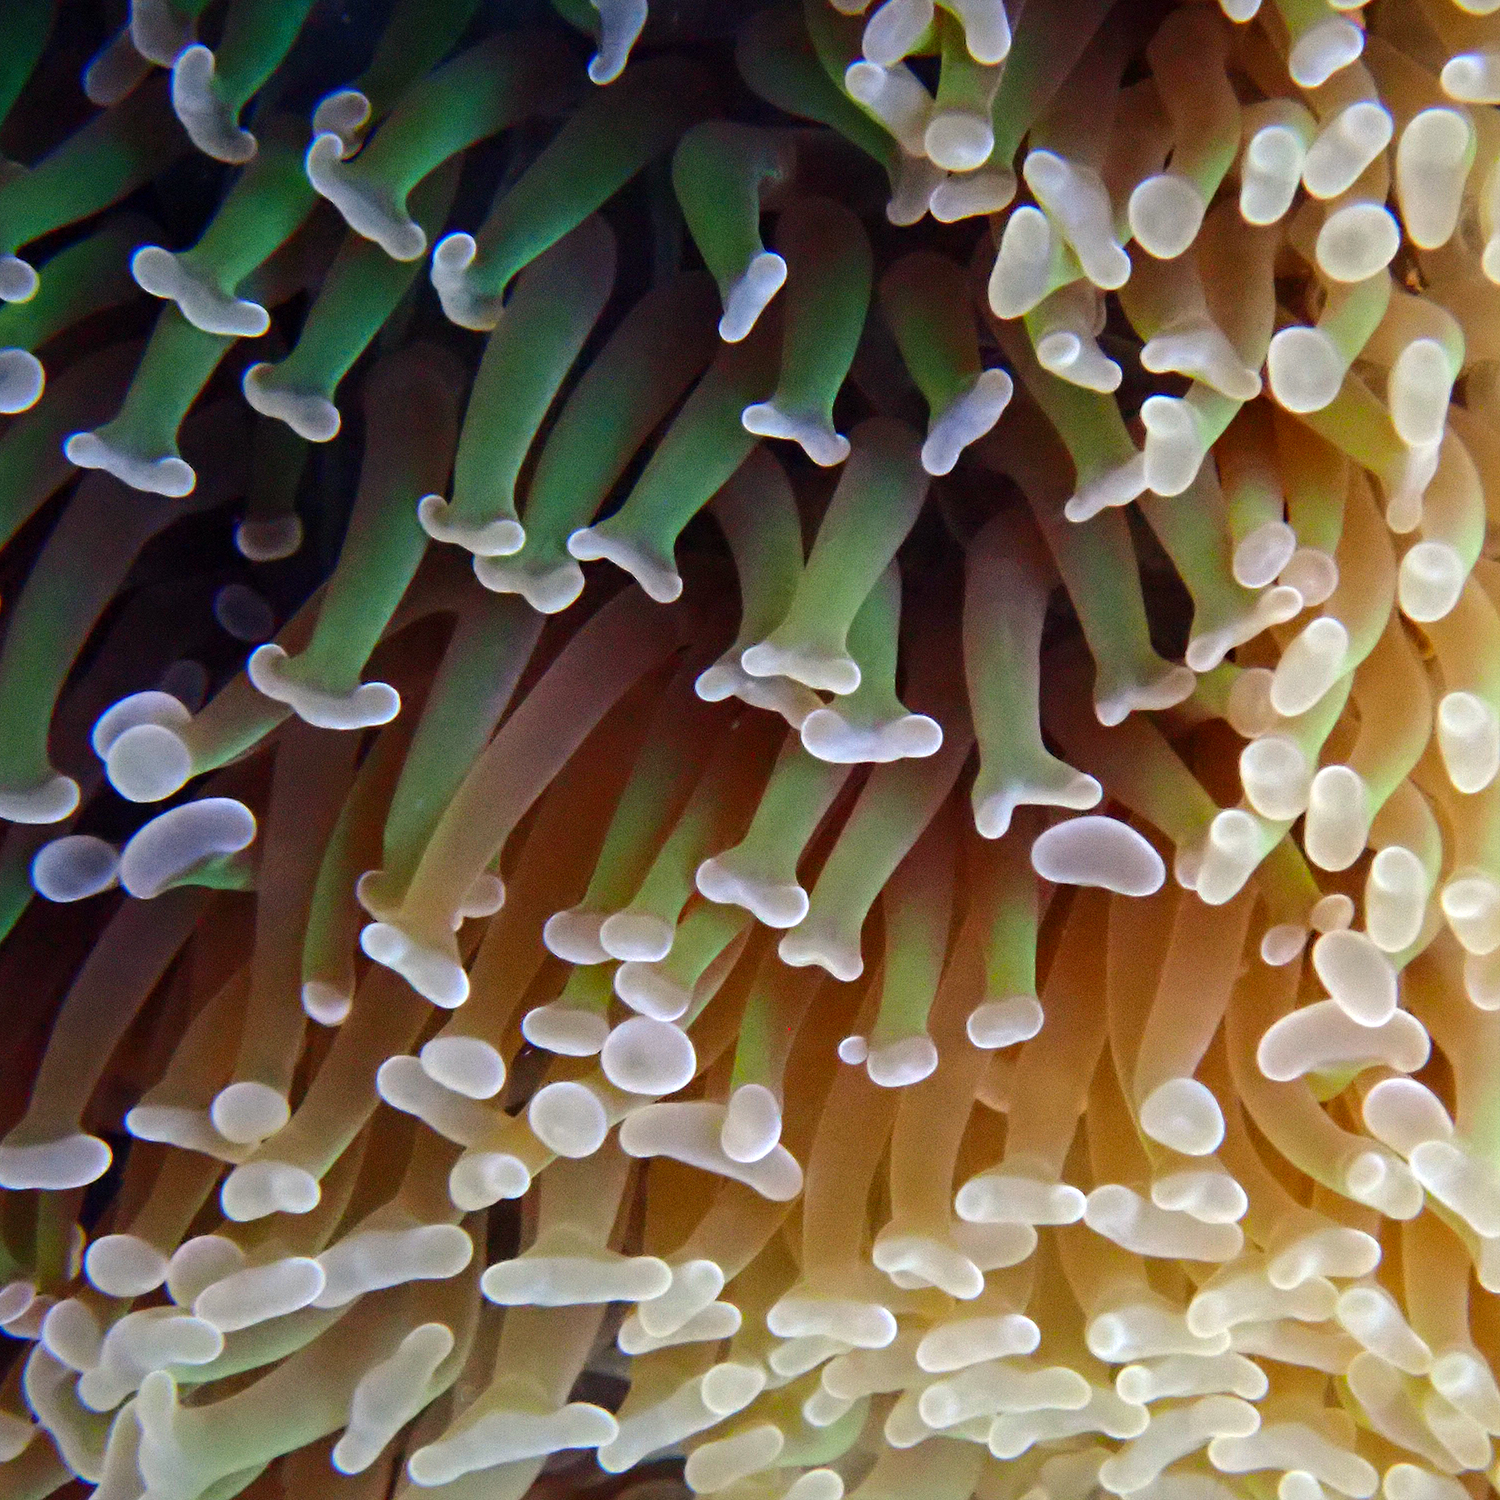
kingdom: Animalia
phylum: Cnidaria
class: Anthozoa
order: Scleractinia
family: Euphylliidae
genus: Fimbriaphyllia
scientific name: Fimbriaphyllia ancora
